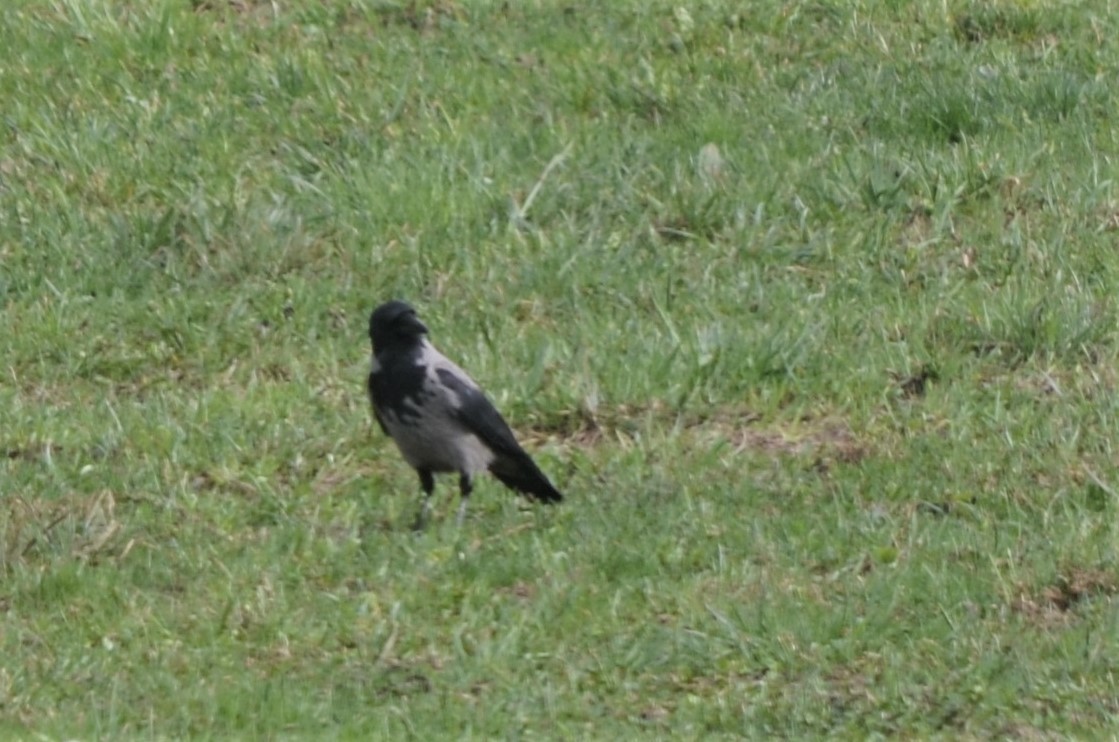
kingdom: Animalia
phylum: Chordata
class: Aves
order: Passeriformes
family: Corvidae
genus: Corvus
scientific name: Corvus cornix
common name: Hooded crow
